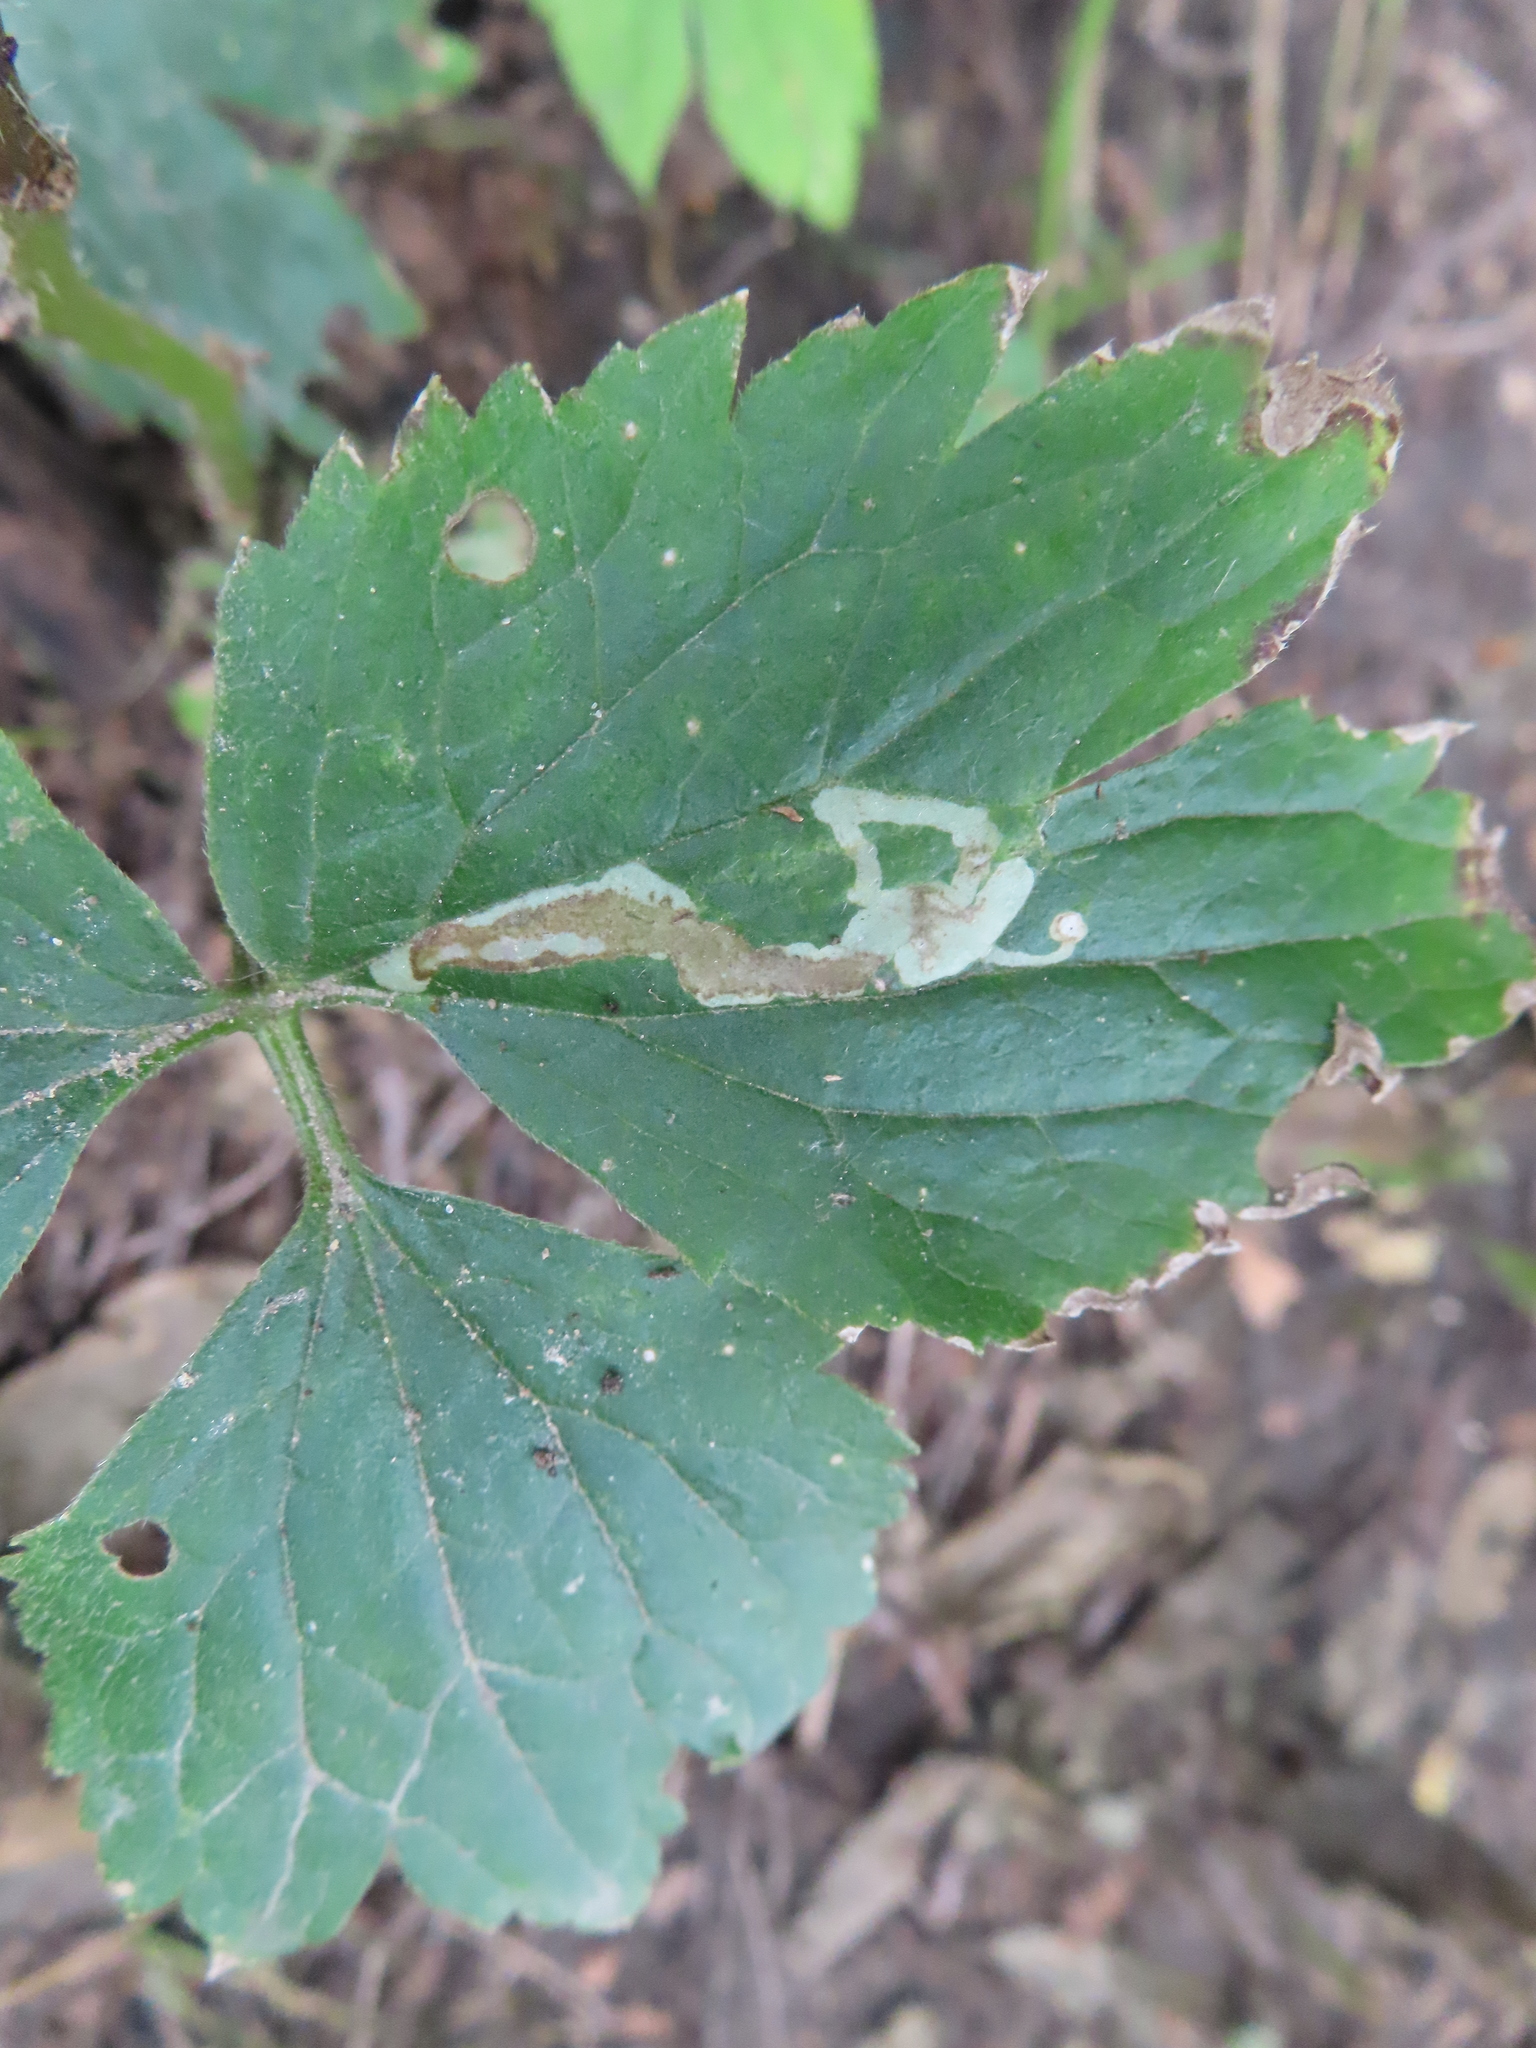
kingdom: Animalia
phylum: Arthropoda
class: Insecta
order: Diptera
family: Agromyzidae
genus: Phytomyza
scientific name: Phytomyza loewii
